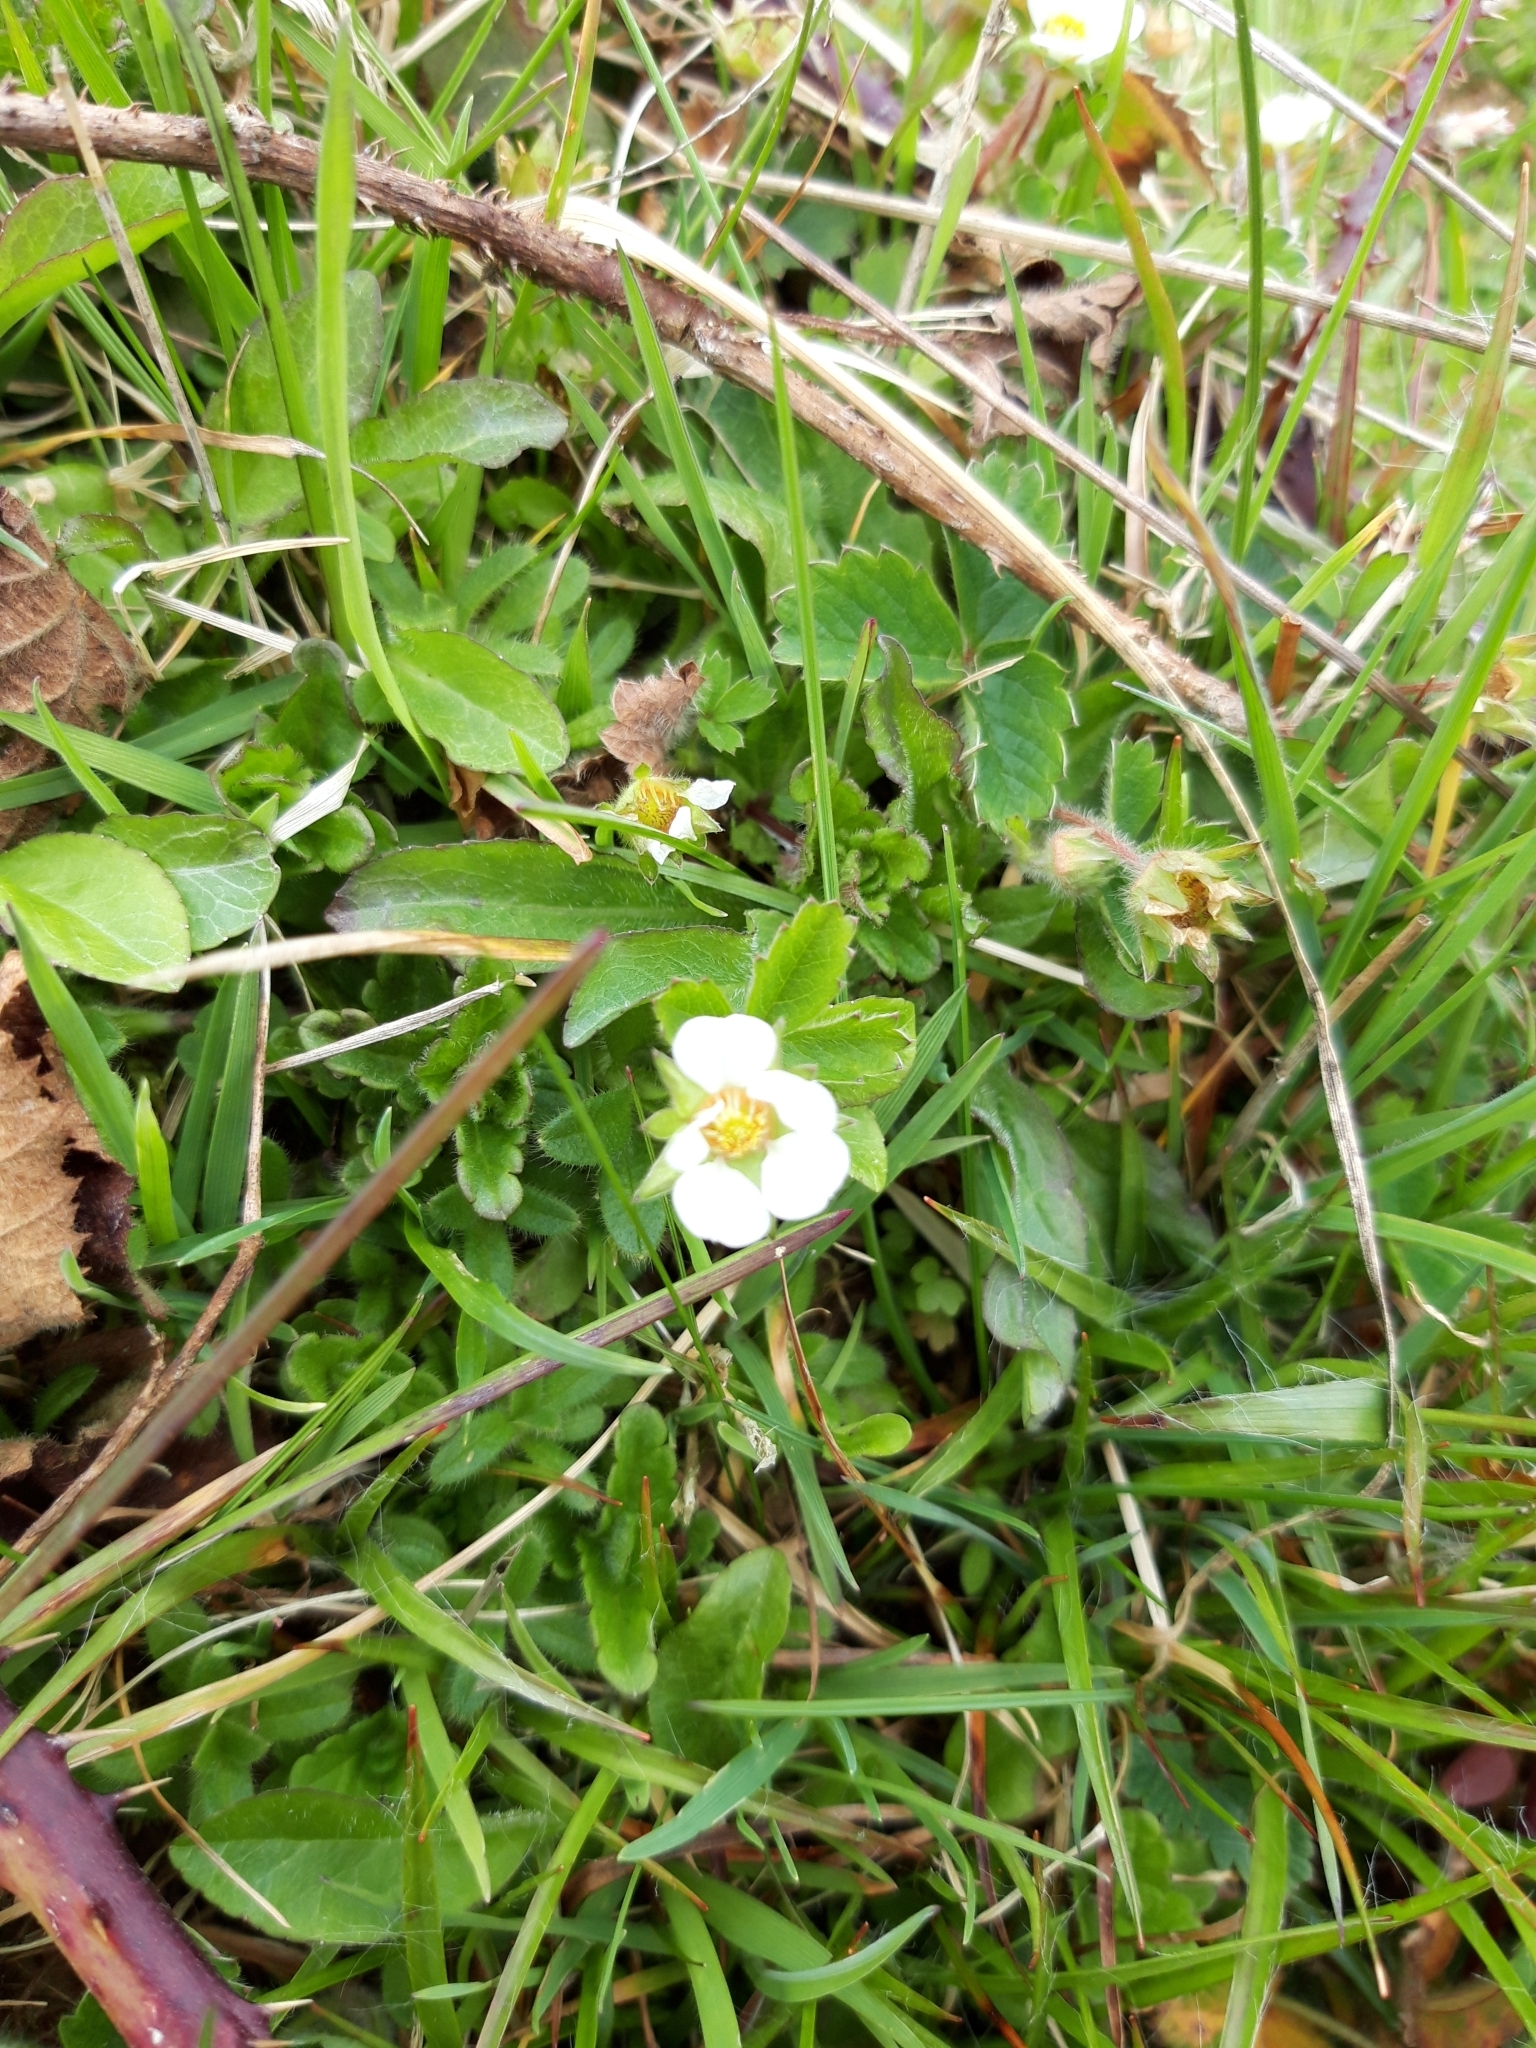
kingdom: Plantae
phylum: Tracheophyta
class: Magnoliopsida
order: Rosales
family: Rosaceae
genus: Potentilla
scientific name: Potentilla sterilis
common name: Barren strawberry
